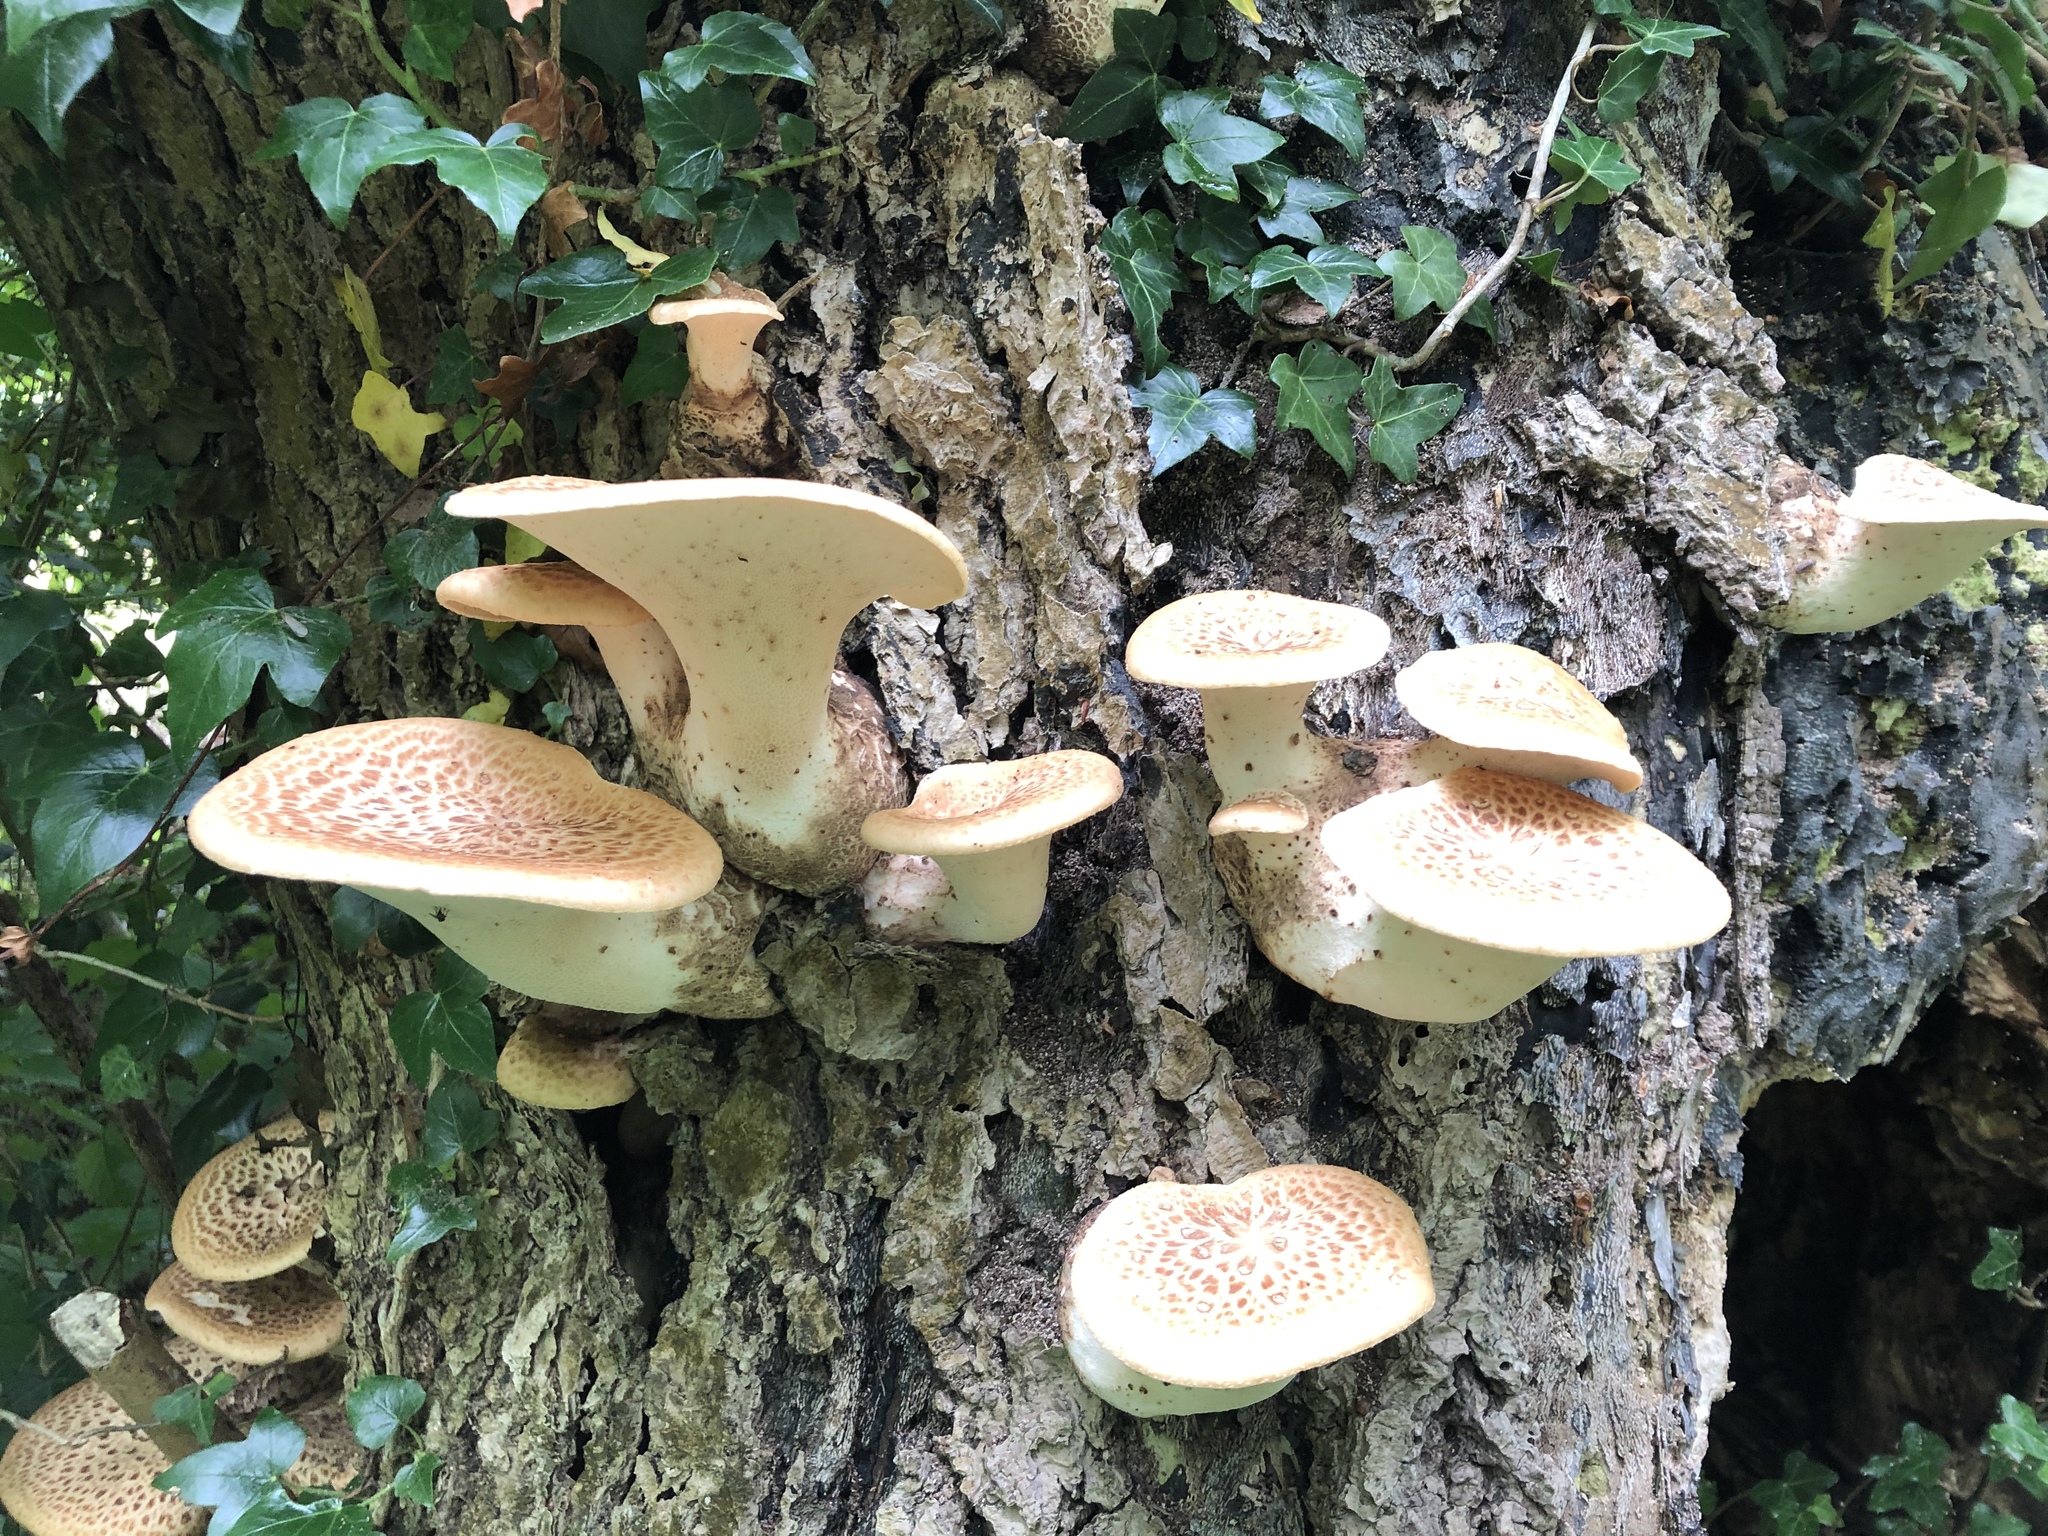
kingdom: Fungi
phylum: Basidiomycota
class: Agaricomycetes
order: Polyporales
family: Polyporaceae
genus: Cerioporus
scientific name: Cerioporus squamosus
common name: Dryad's saddle
